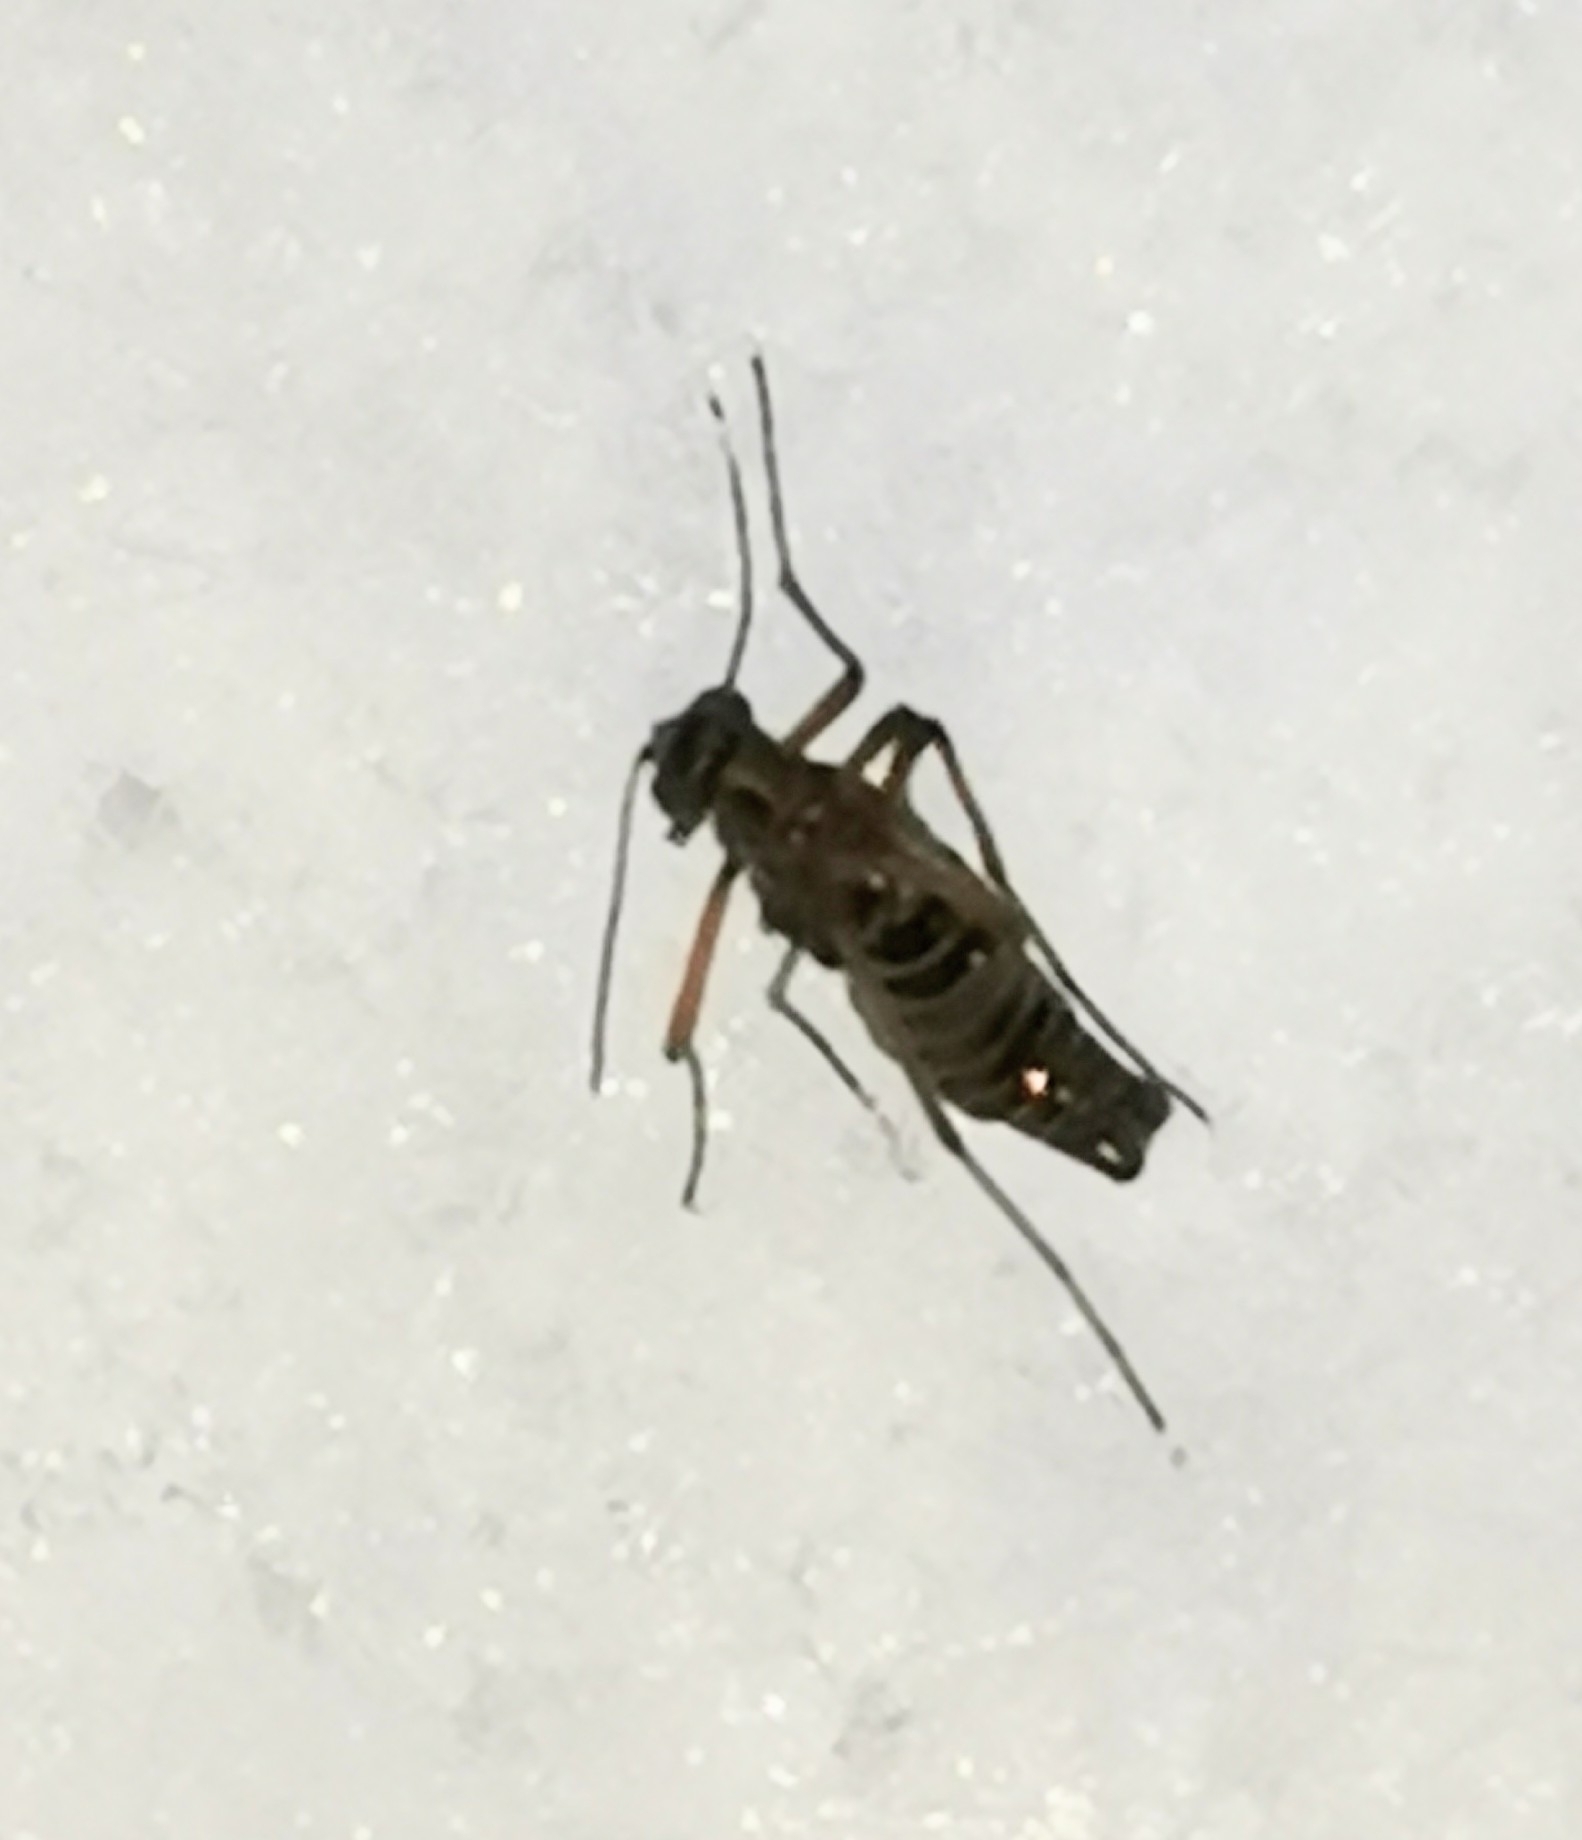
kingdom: Animalia
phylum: Arthropoda
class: Insecta
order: Mecoptera
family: Boreidae
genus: Boreus
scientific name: Boreus westwoodi
